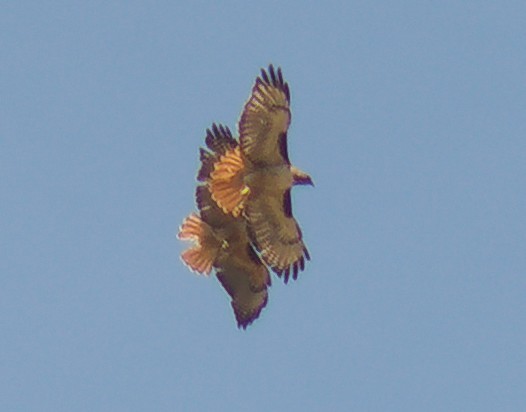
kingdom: Animalia
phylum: Chordata
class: Aves
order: Accipitriformes
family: Accipitridae
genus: Buteo
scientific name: Buteo jamaicensis
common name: Red-tailed hawk
